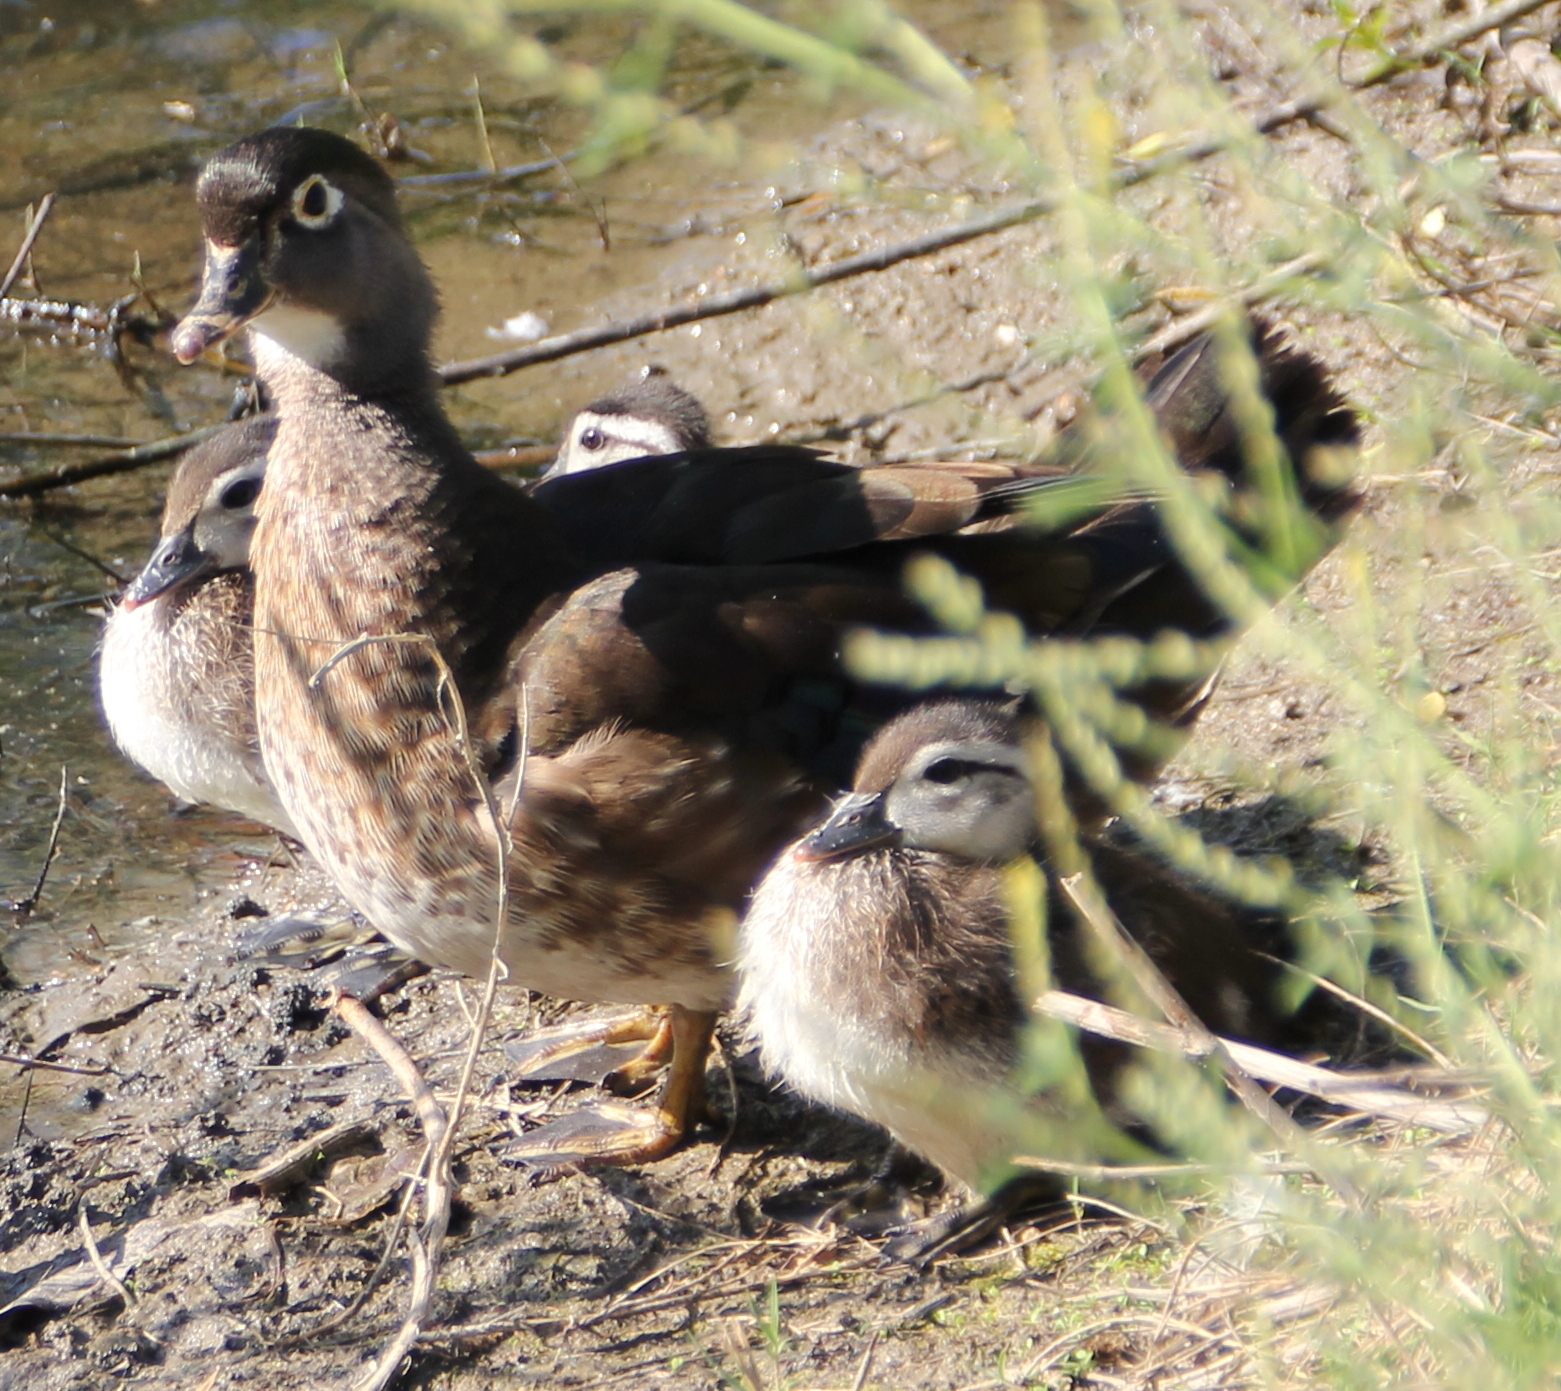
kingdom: Animalia
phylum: Chordata
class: Aves
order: Anseriformes
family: Anatidae
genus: Aix
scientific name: Aix sponsa
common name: Wood duck
